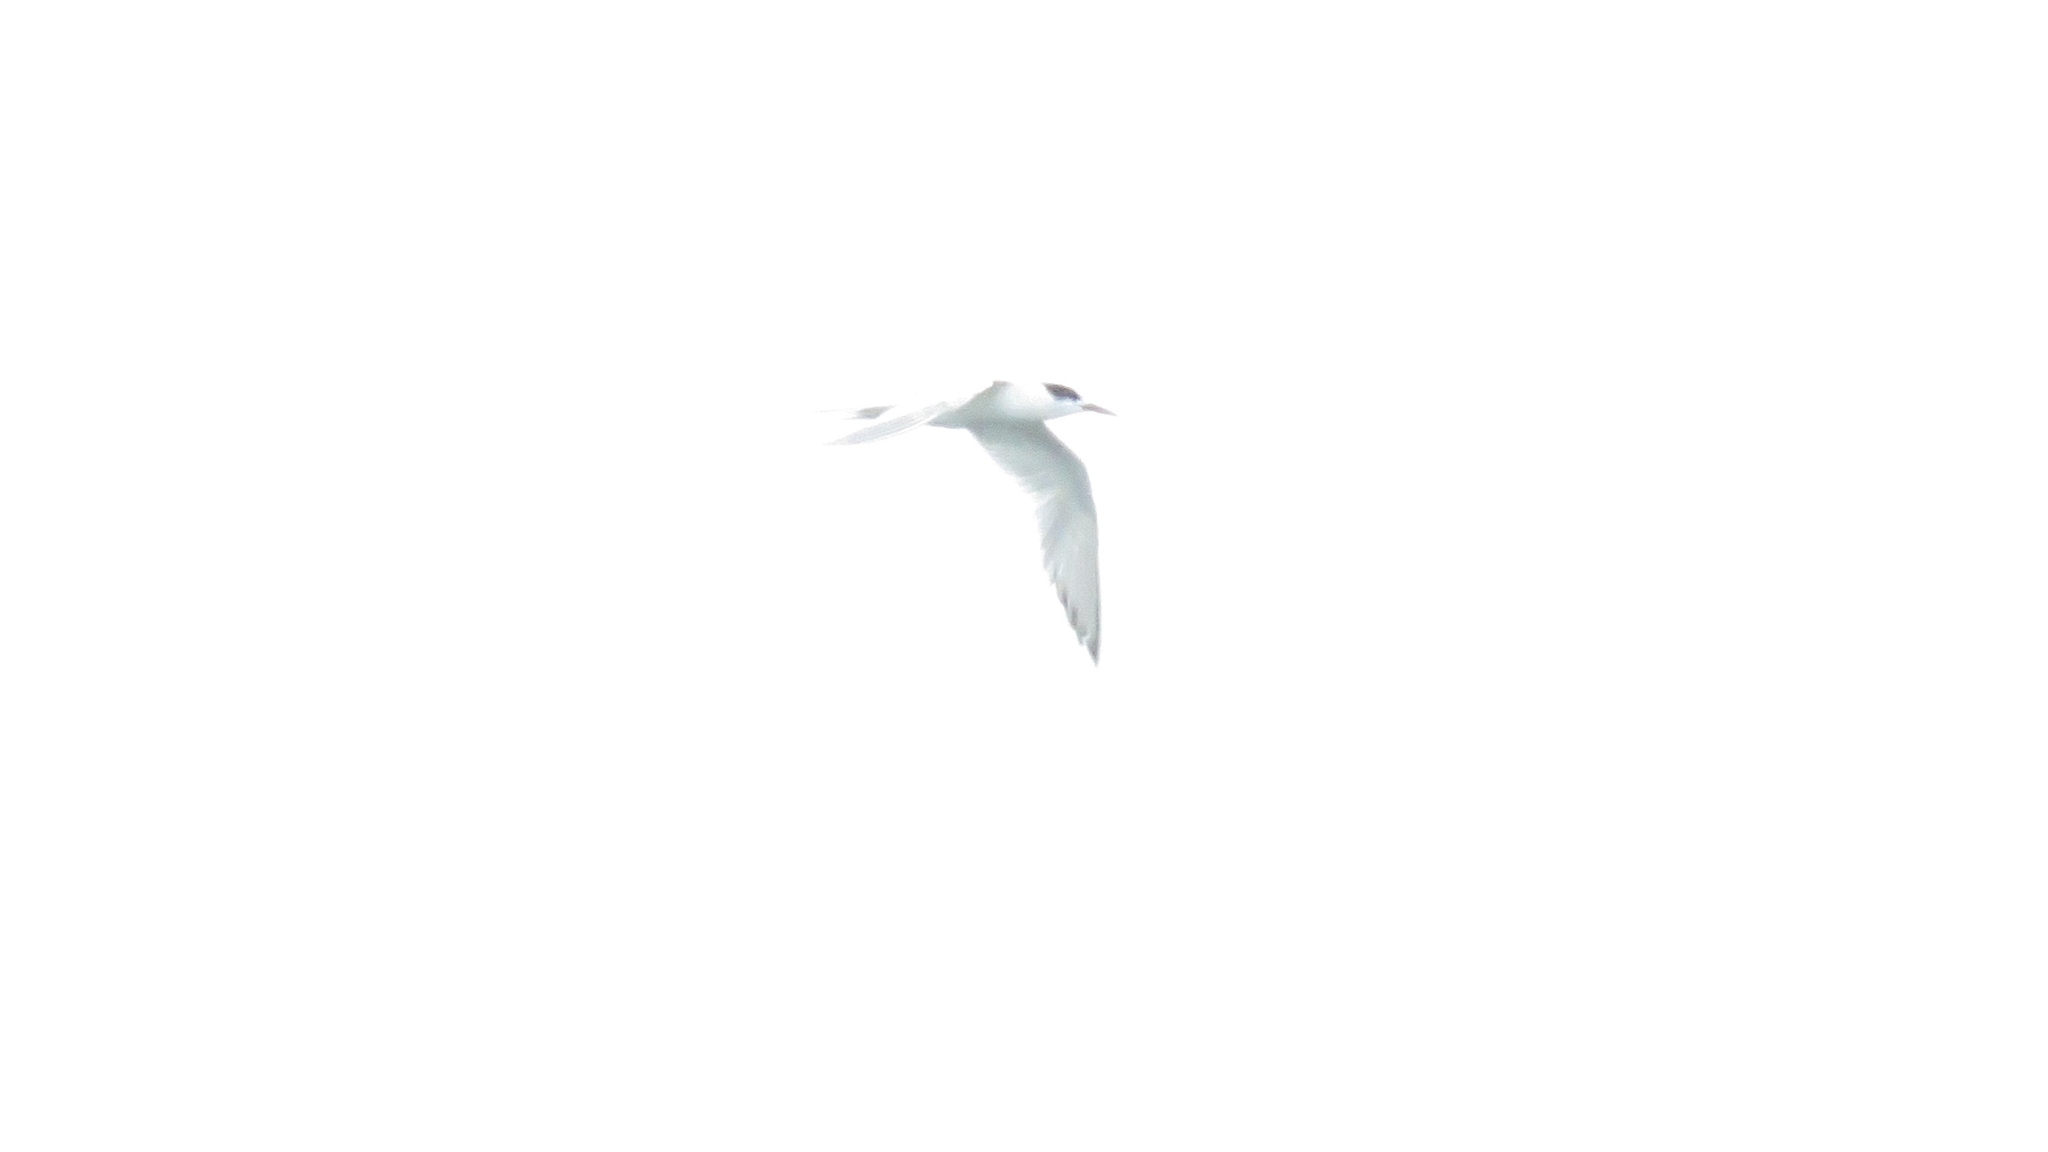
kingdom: Animalia
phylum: Chordata
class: Aves
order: Charadriiformes
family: Laridae
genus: Sterna
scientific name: Sterna hirundo
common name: Common tern
